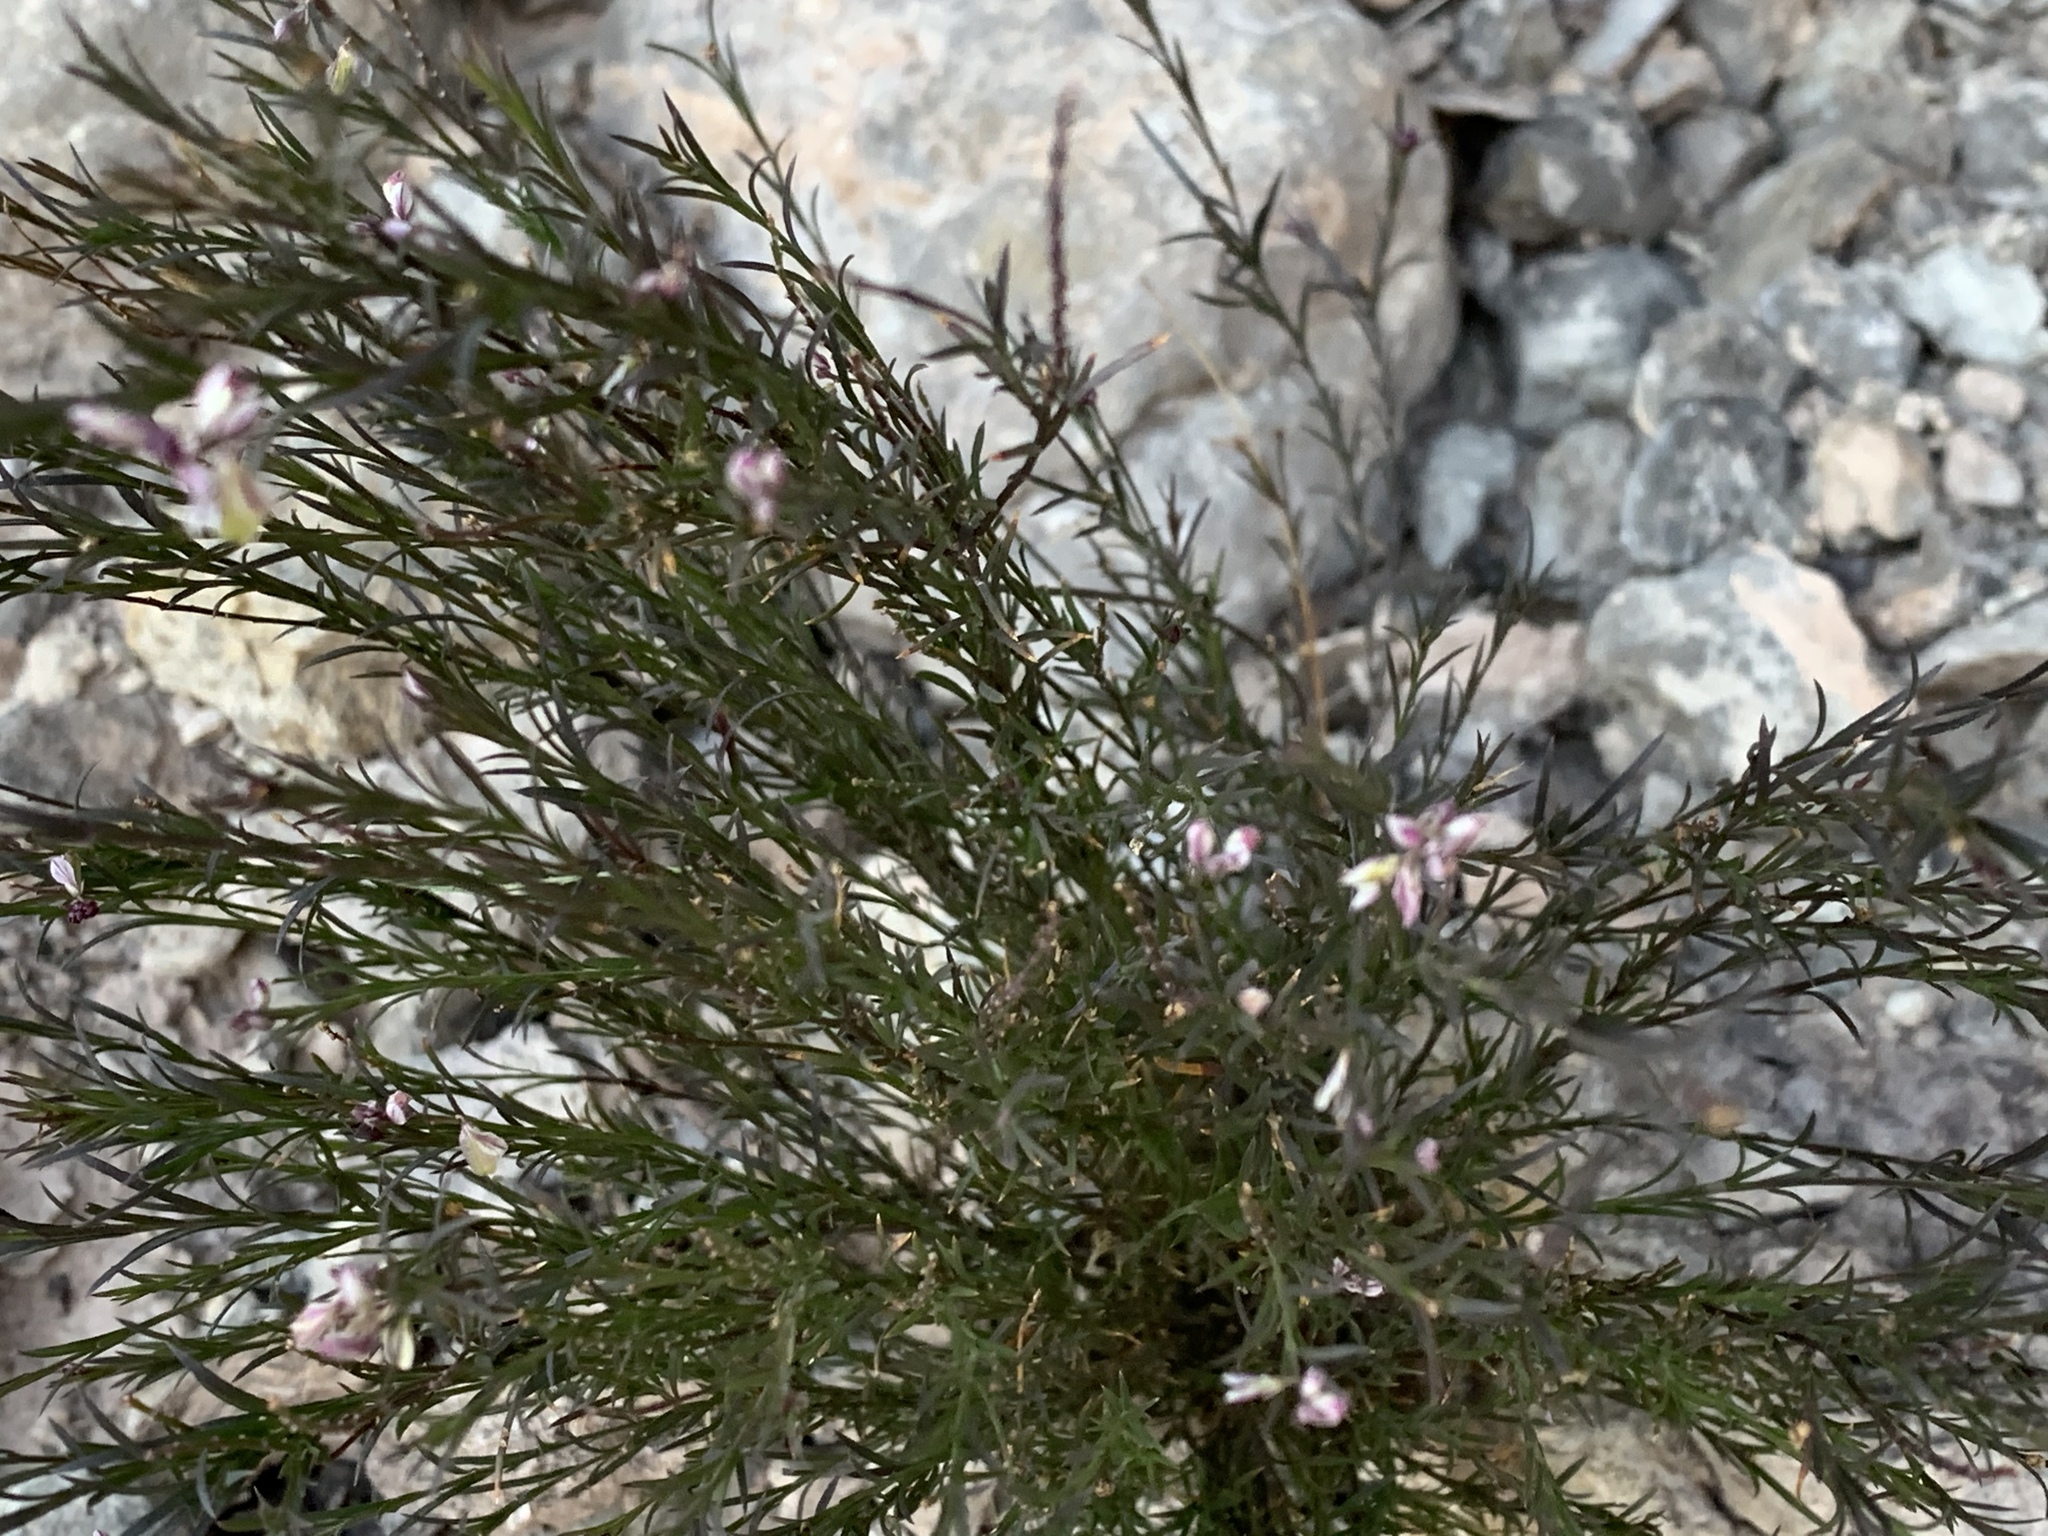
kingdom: Plantae
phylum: Tracheophyta
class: Magnoliopsida
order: Fabales
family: Polygalaceae
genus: Polygala
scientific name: Polygala scoparioides
